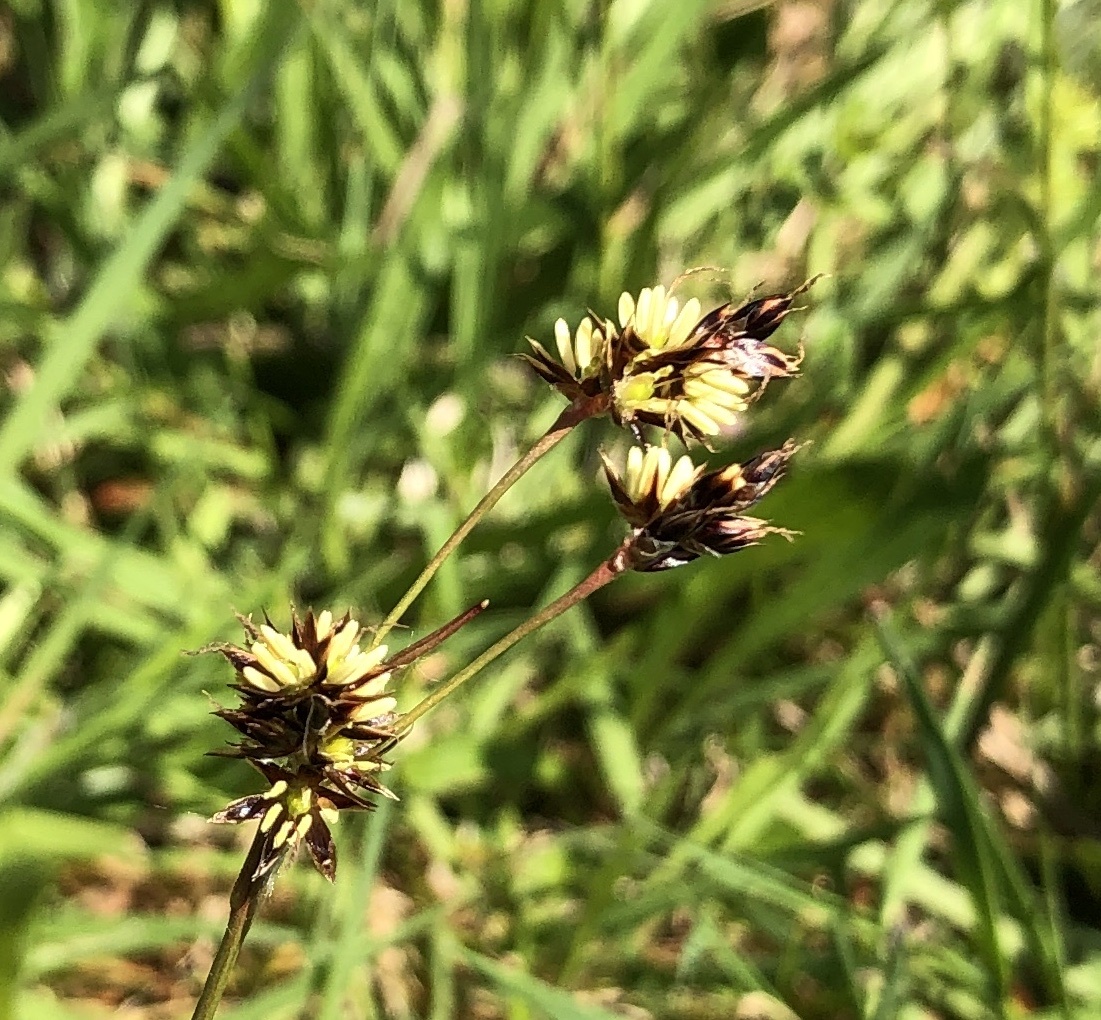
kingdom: Plantae
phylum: Tracheophyta
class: Liliopsida
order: Poales
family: Juncaceae
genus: Luzula
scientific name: Luzula campestris
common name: Field wood-rush
